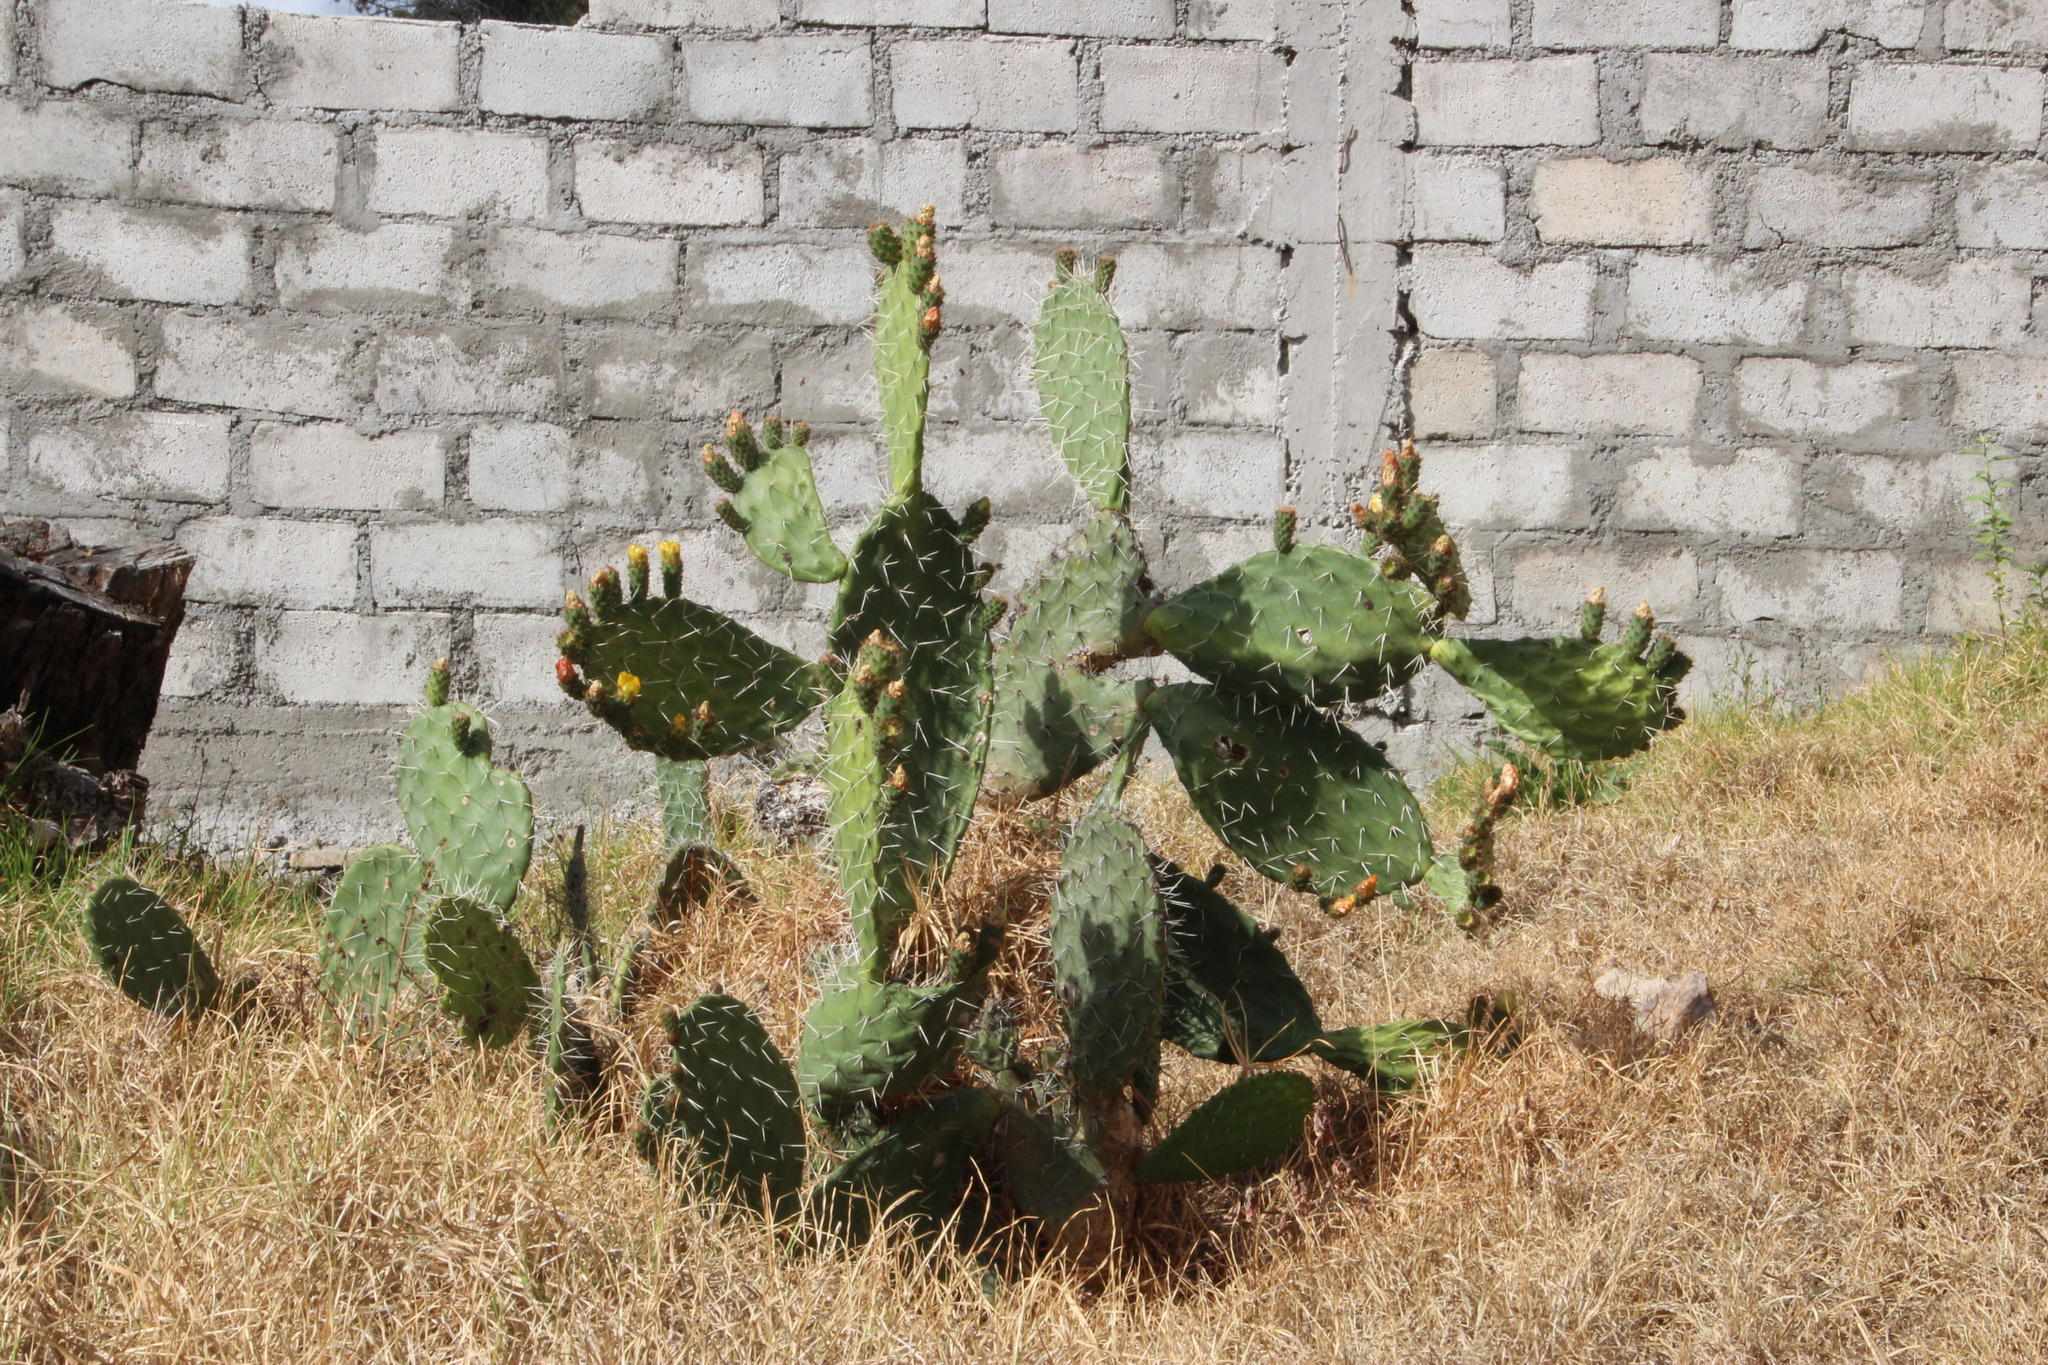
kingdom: Plantae
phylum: Tracheophyta
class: Magnoliopsida
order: Caryophyllales
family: Cactaceae
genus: Opuntia
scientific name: Opuntia ficus-indica
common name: Barbary fig
